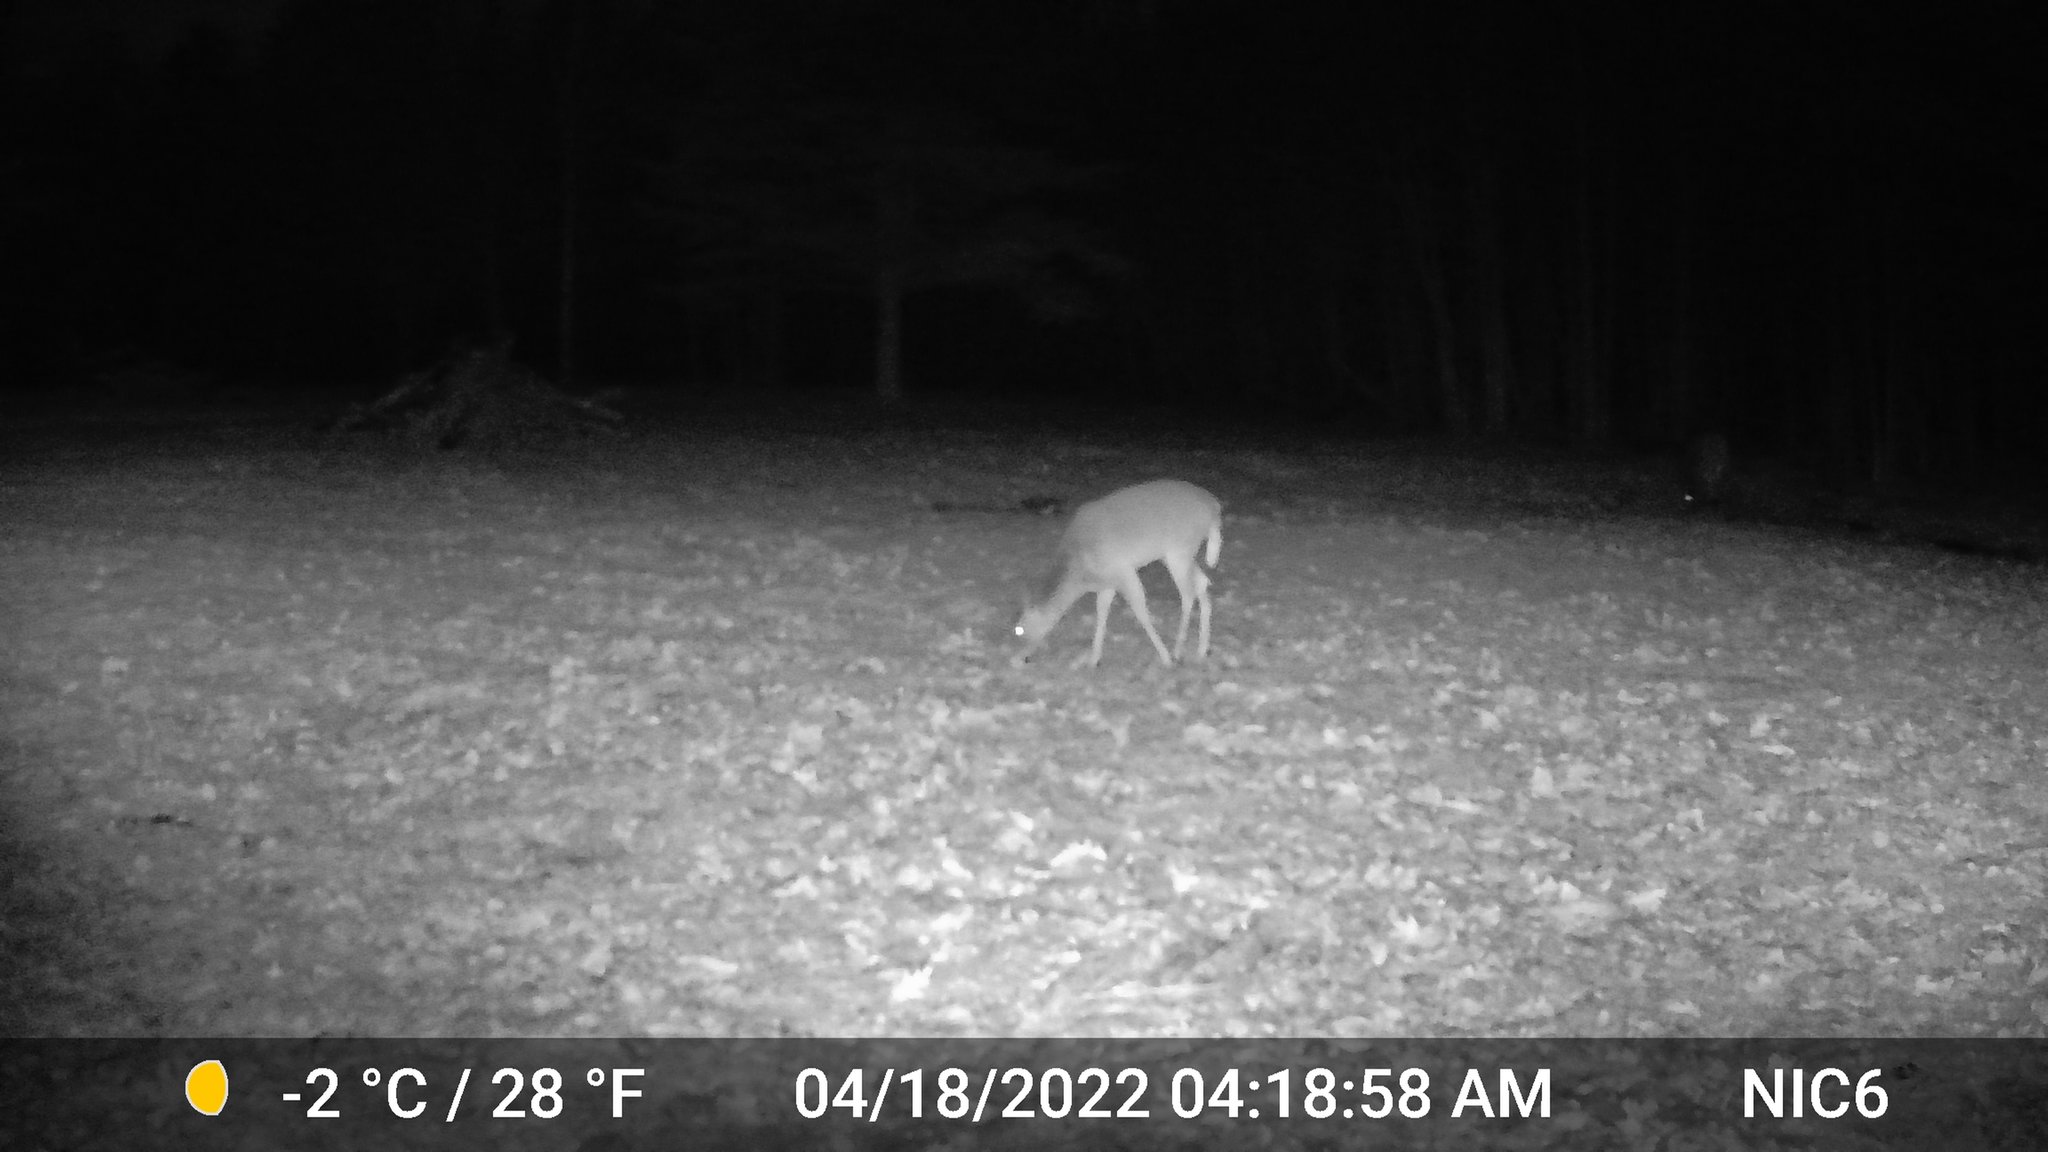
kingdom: Animalia
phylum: Chordata
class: Mammalia
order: Artiodactyla
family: Cervidae
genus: Odocoileus
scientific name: Odocoileus virginianus
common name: White-tailed deer
